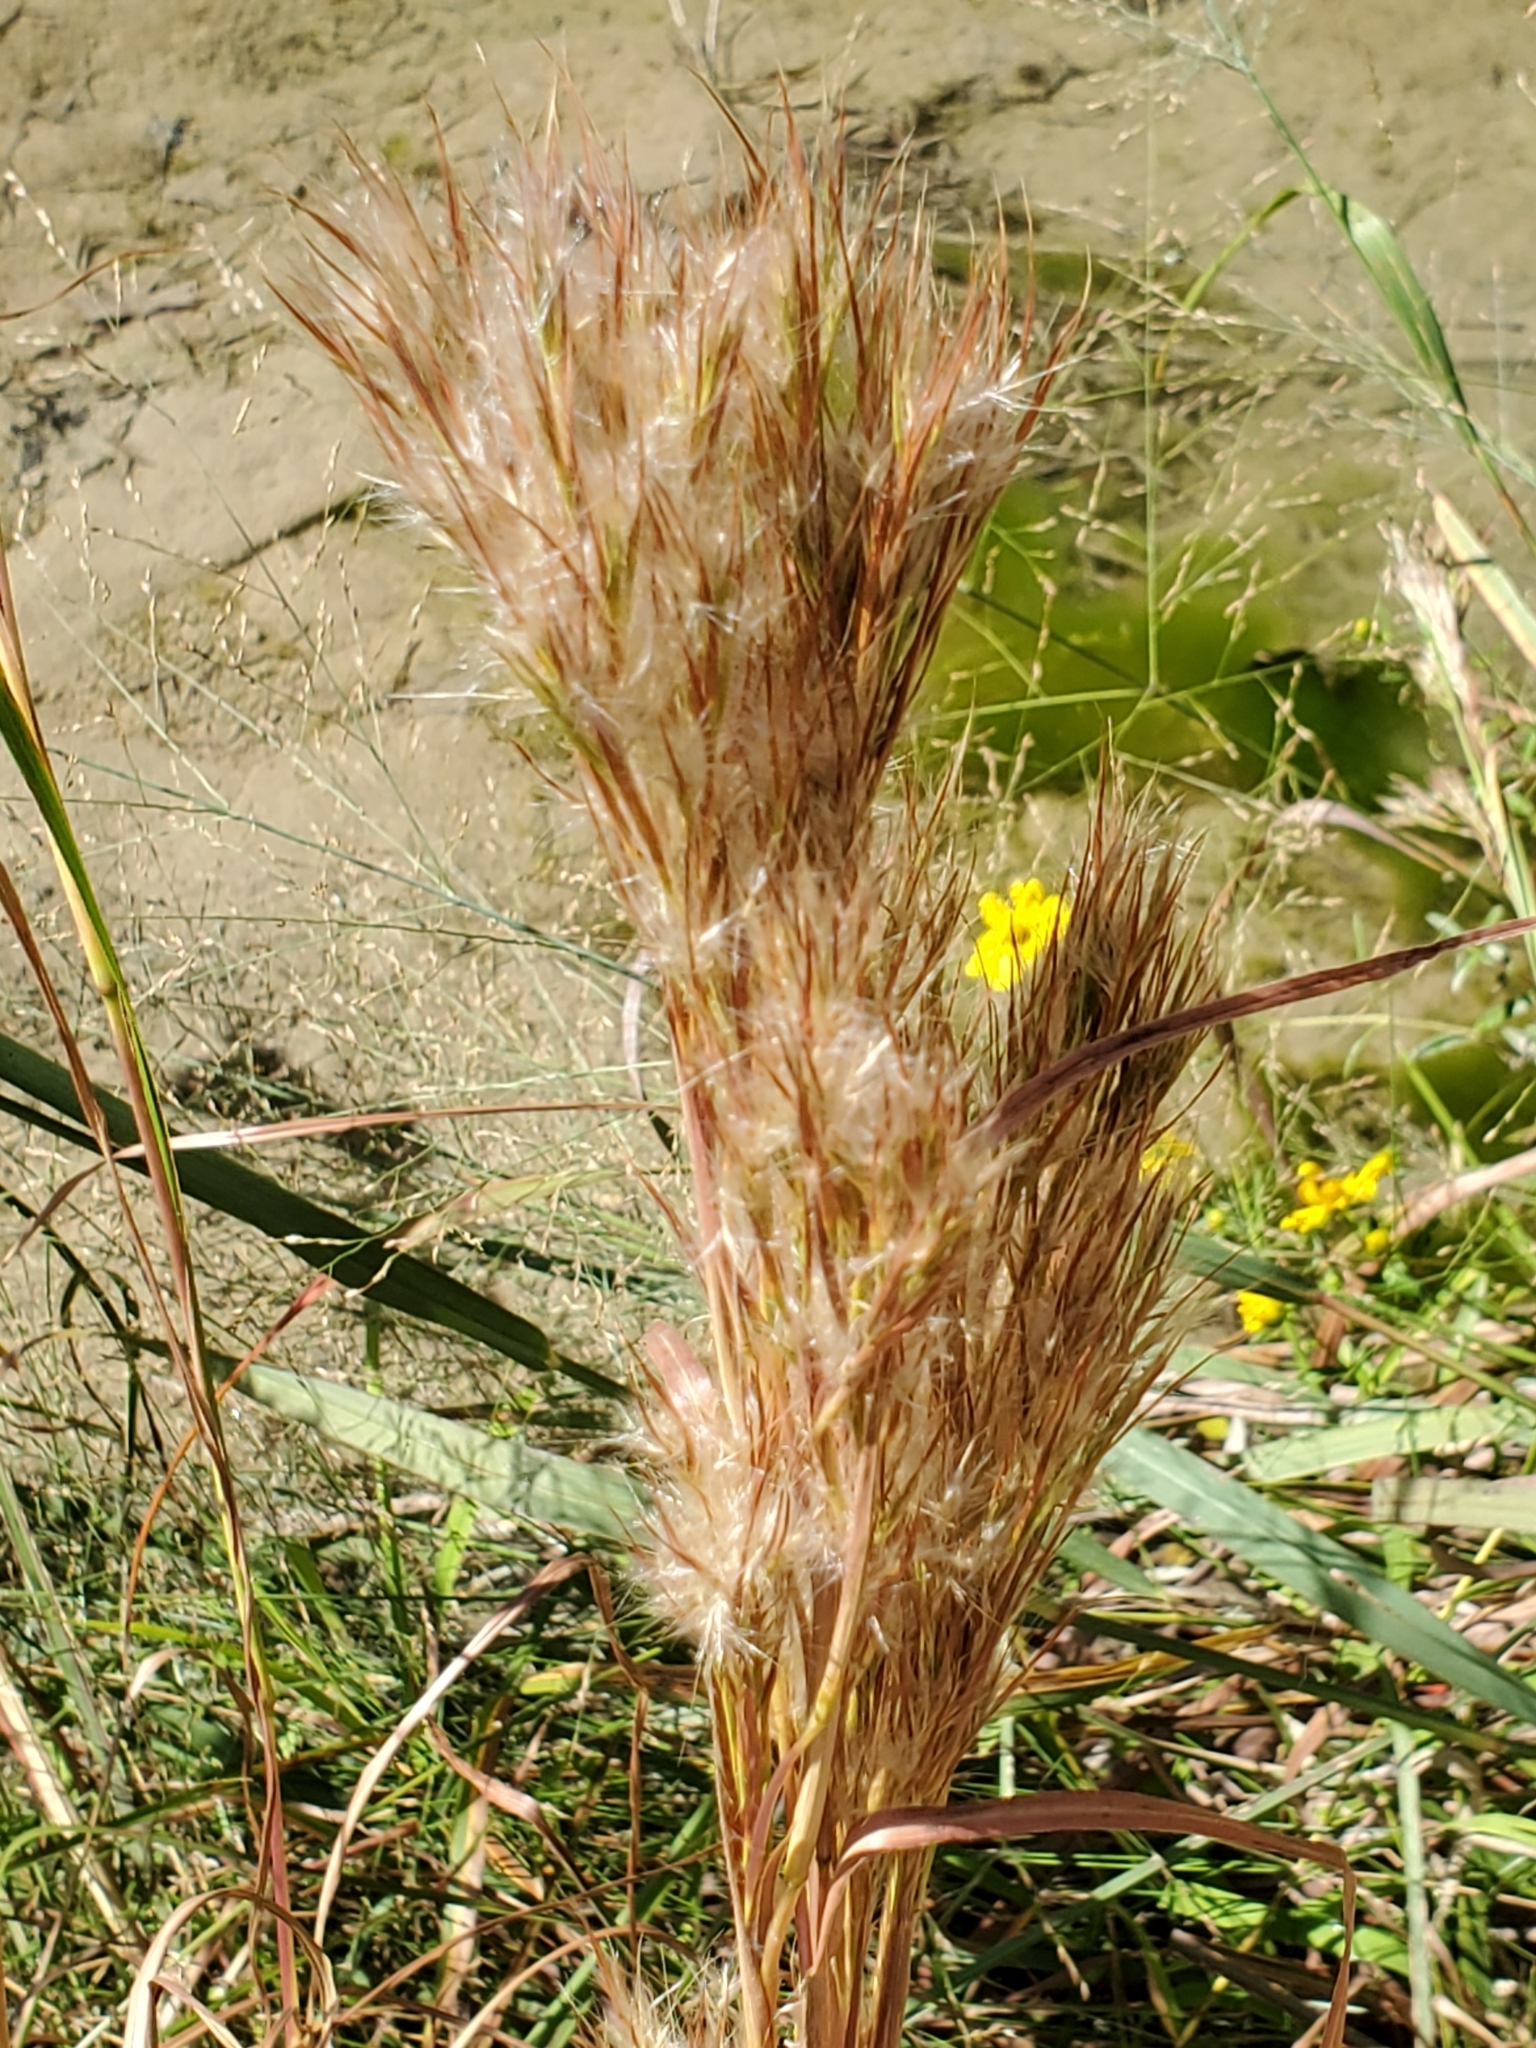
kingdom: Plantae
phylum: Tracheophyta
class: Liliopsida
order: Poales
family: Poaceae
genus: Andropogon
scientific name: Andropogon tenuispatheus
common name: Bushy bluestem
